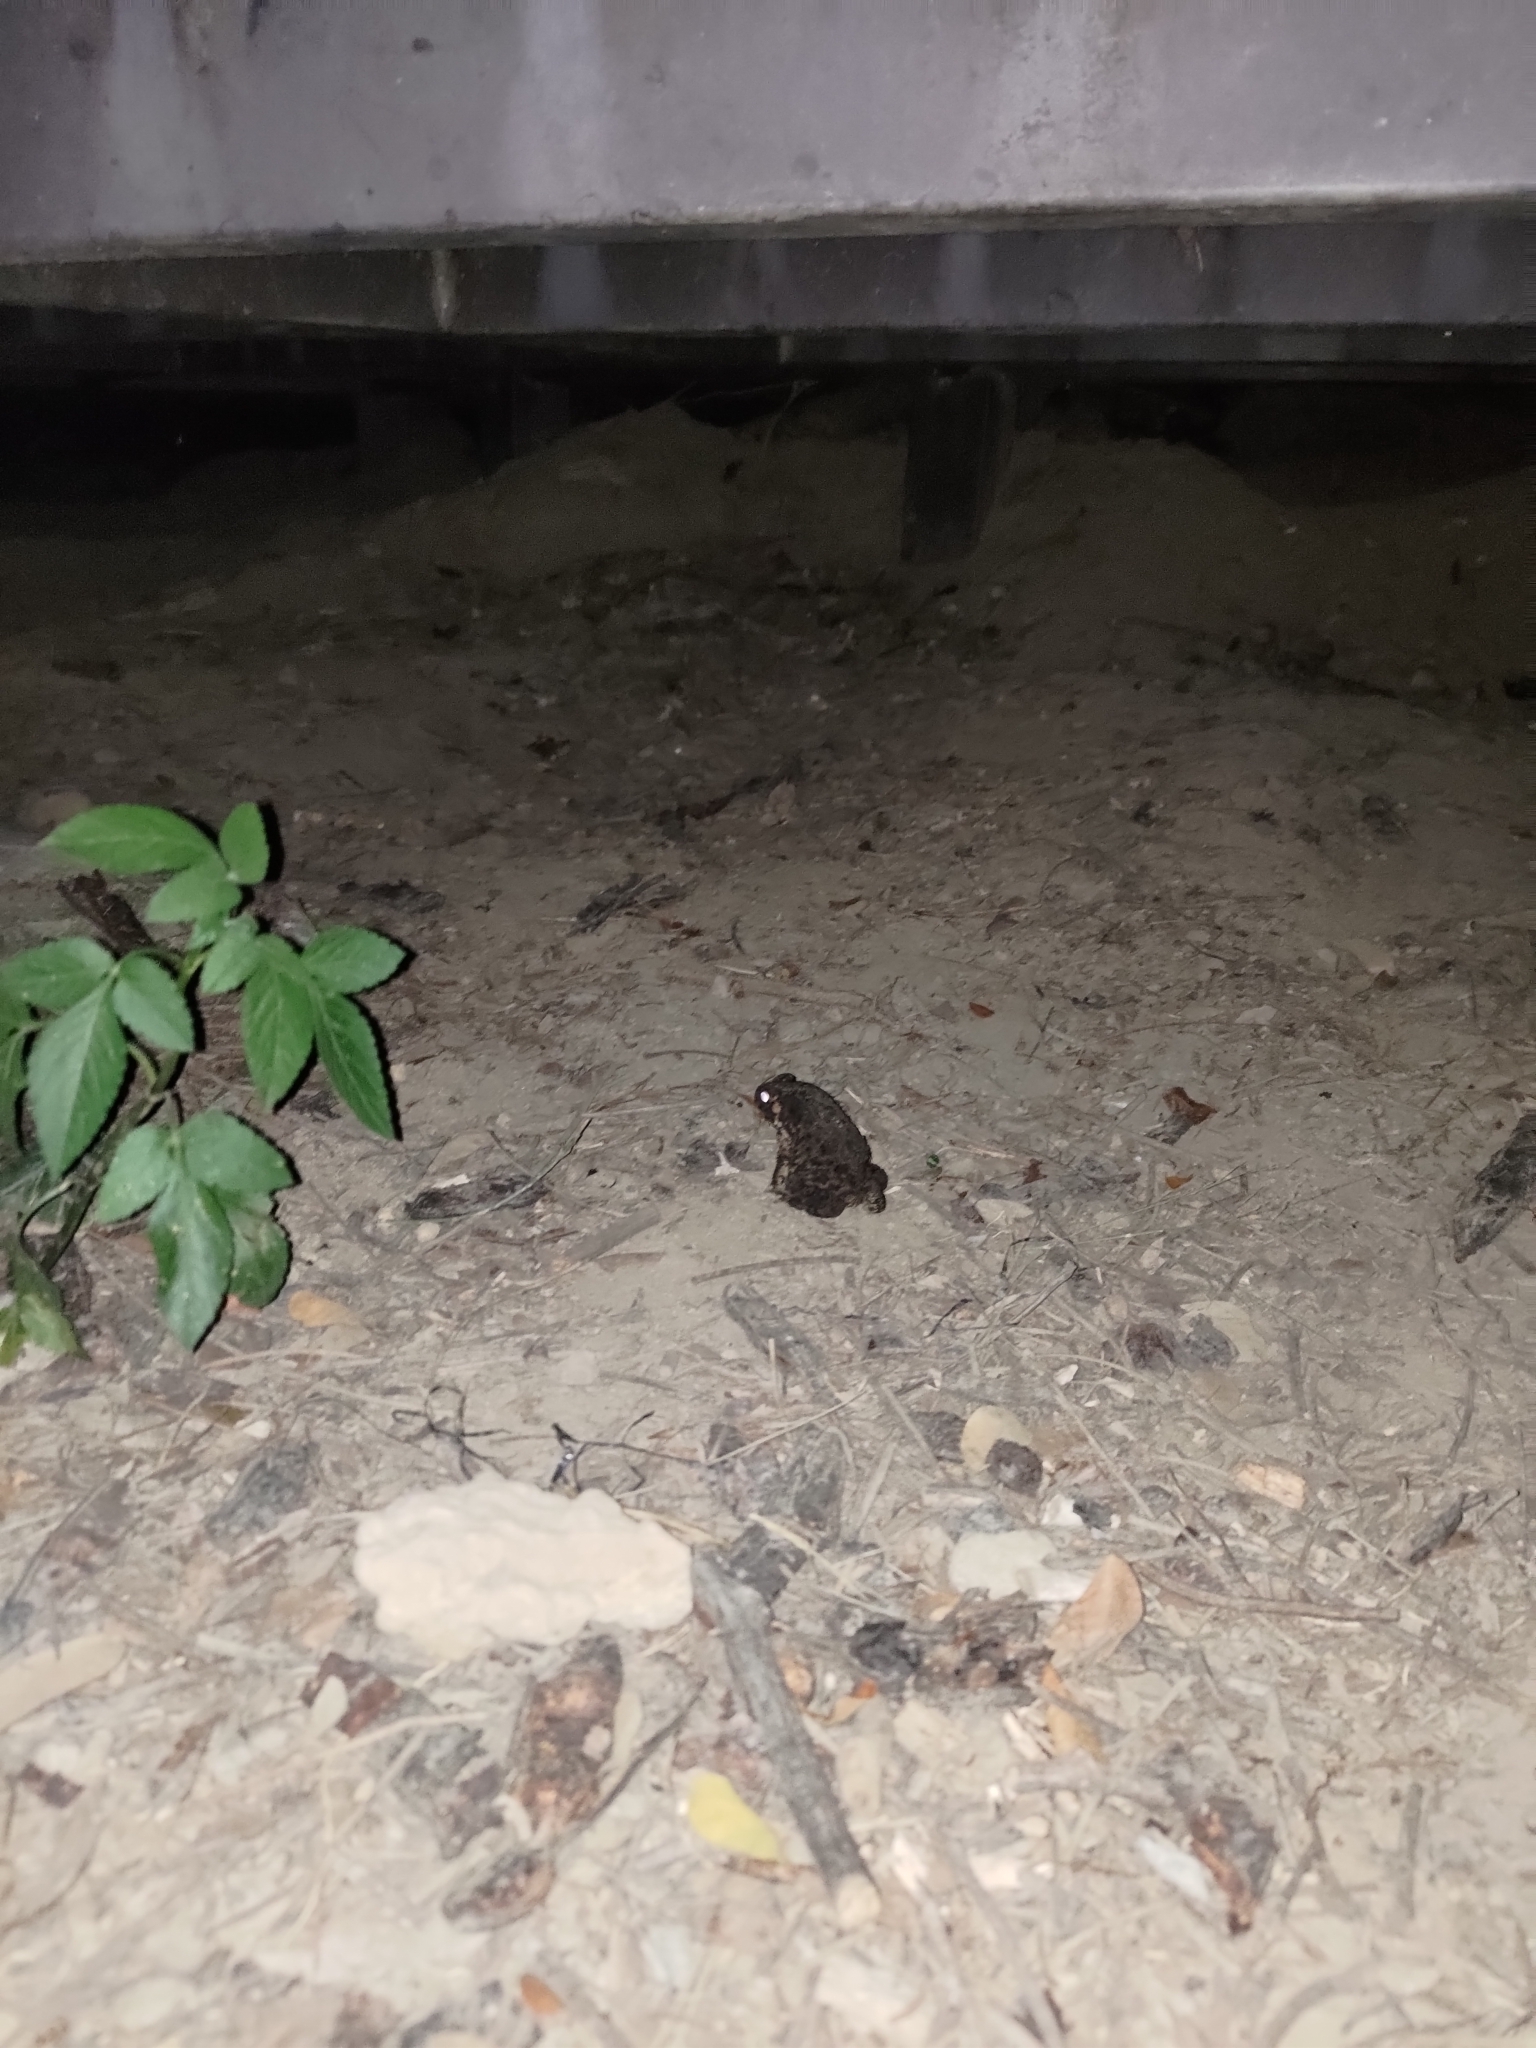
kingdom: Animalia
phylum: Chordata
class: Amphibia
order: Anura
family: Bufonidae
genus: Duttaphrynus
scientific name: Duttaphrynus melanostictus
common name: Common sunda toad
